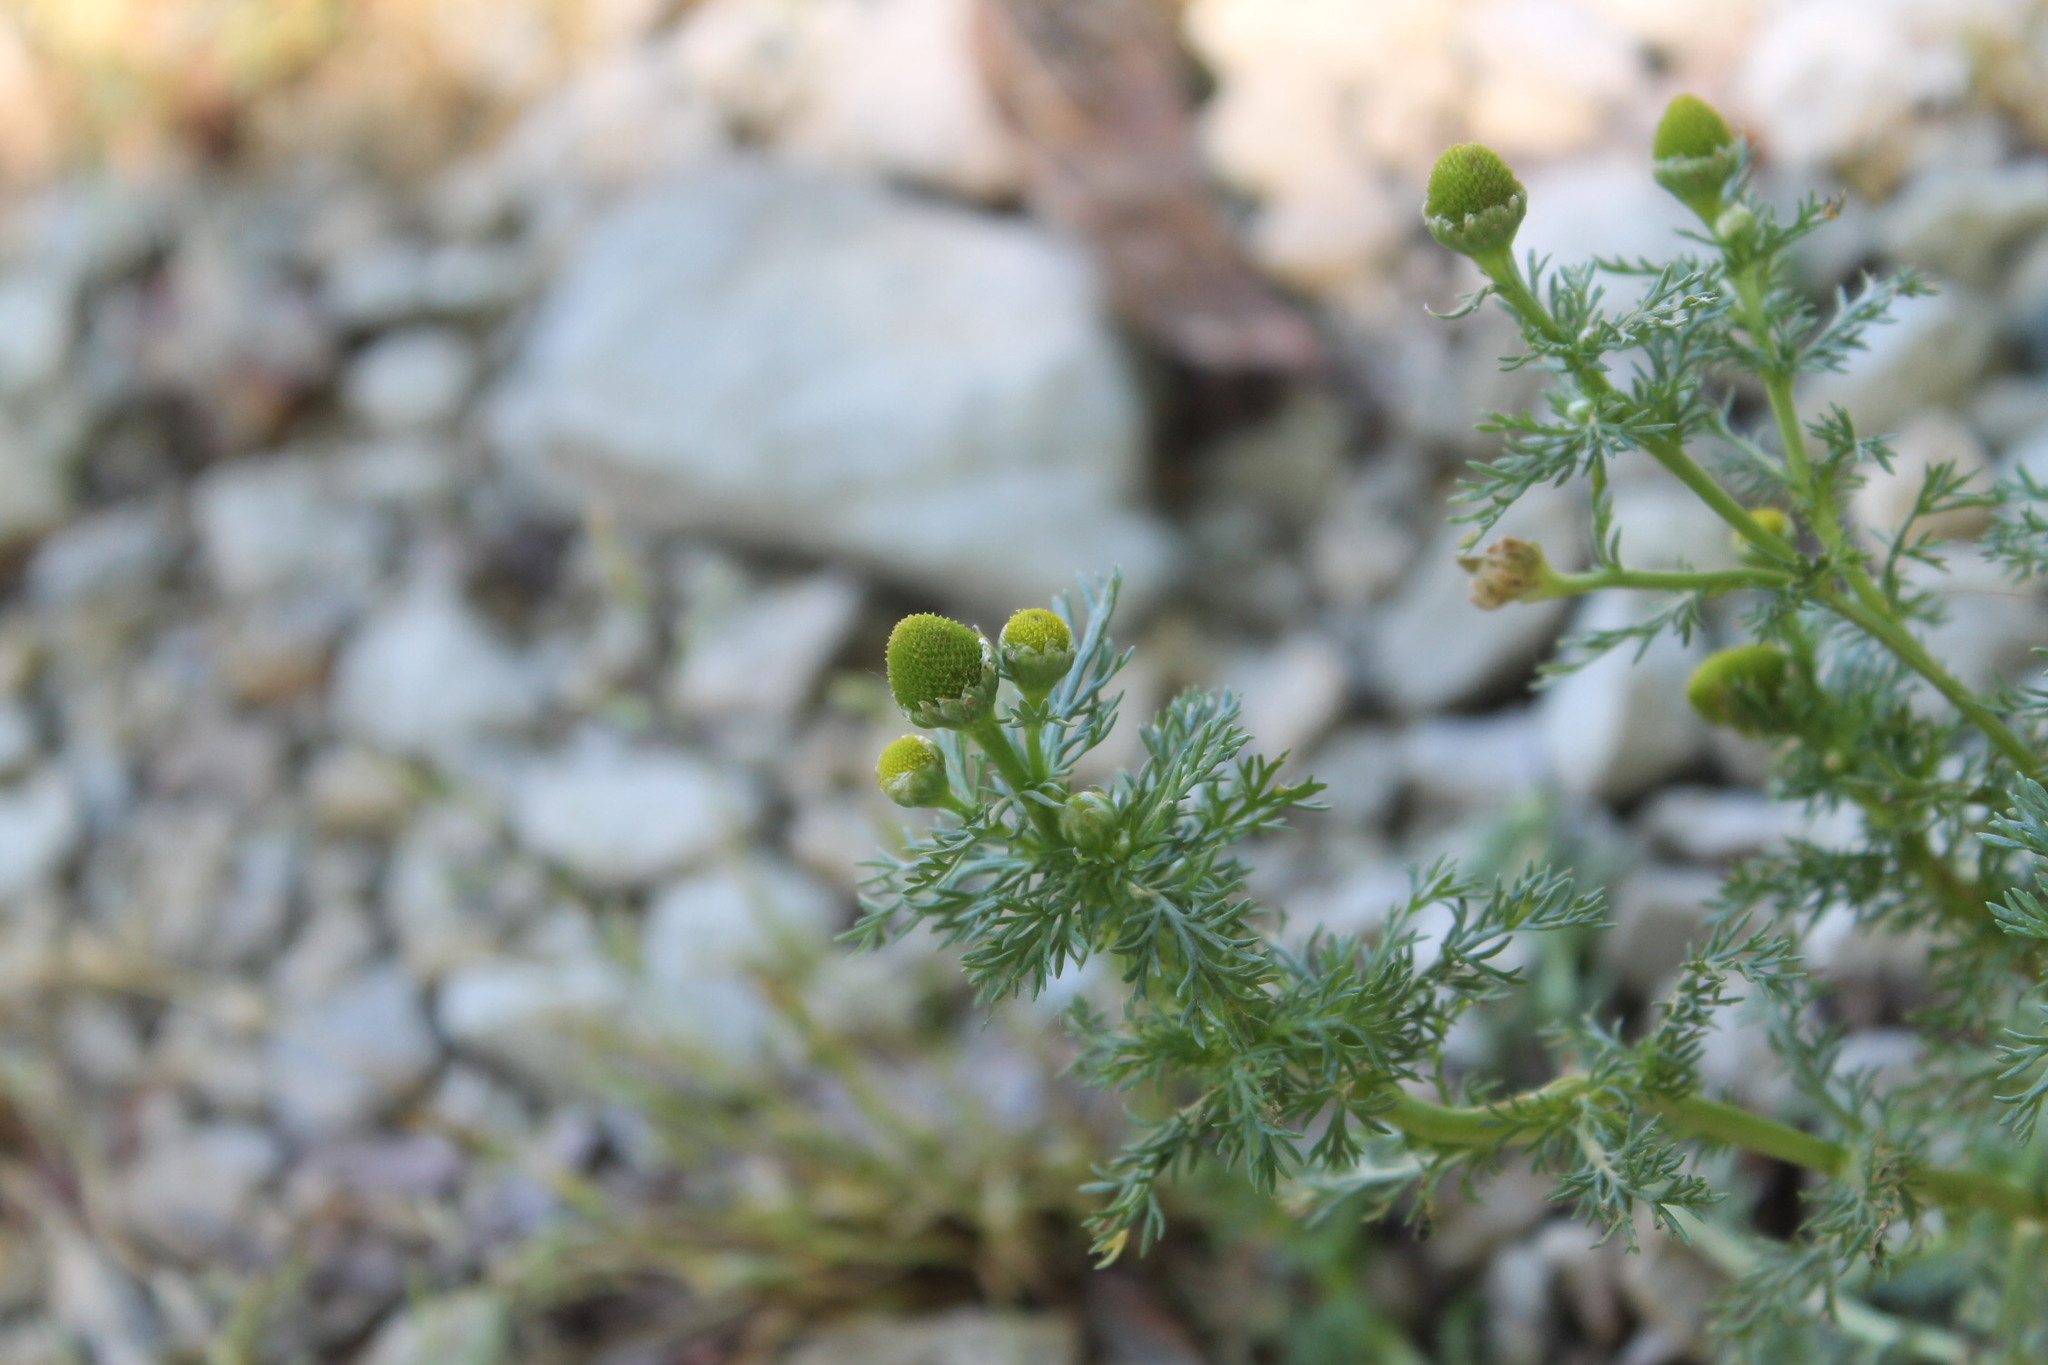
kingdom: Plantae
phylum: Tracheophyta
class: Magnoliopsida
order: Asterales
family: Asteraceae
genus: Matricaria
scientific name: Matricaria discoidea
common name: Disc mayweed
